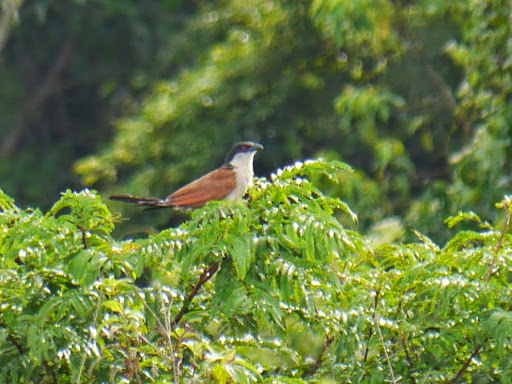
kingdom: Animalia
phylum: Chordata
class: Aves
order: Cuculiformes
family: Cuculidae
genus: Centropus
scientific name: Centropus senegalensis
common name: Senegal coucal
